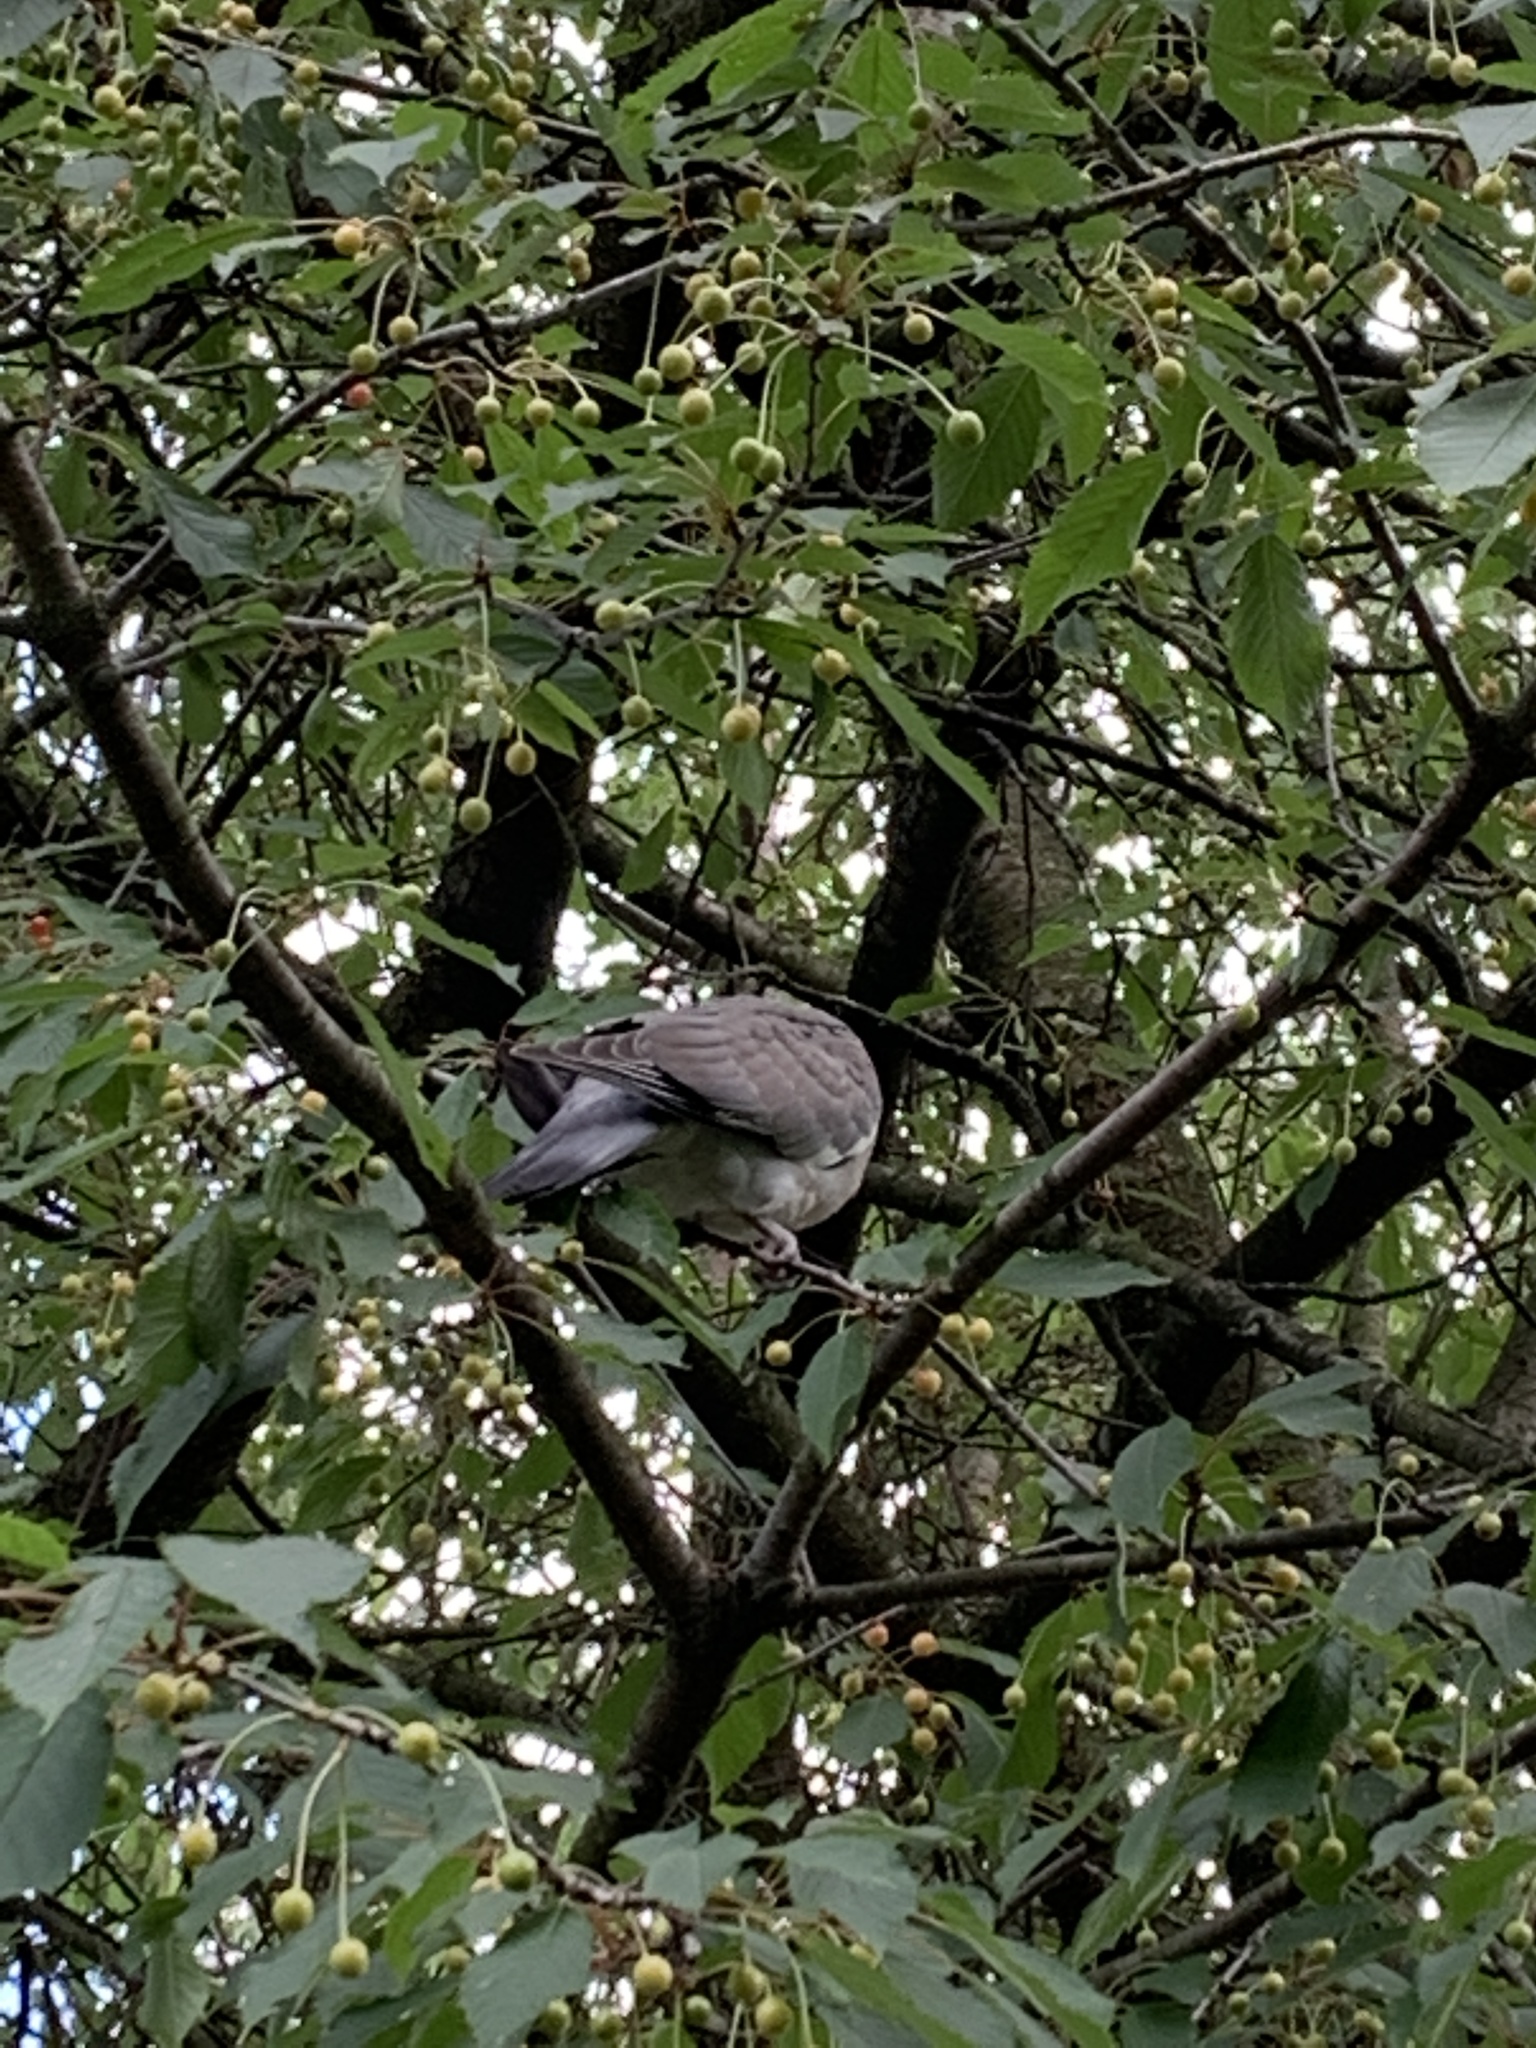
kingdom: Animalia
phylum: Chordata
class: Aves
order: Columbiformes
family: Columbidae
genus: Columba
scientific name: Columba palumbus
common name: Common wood pigeon
